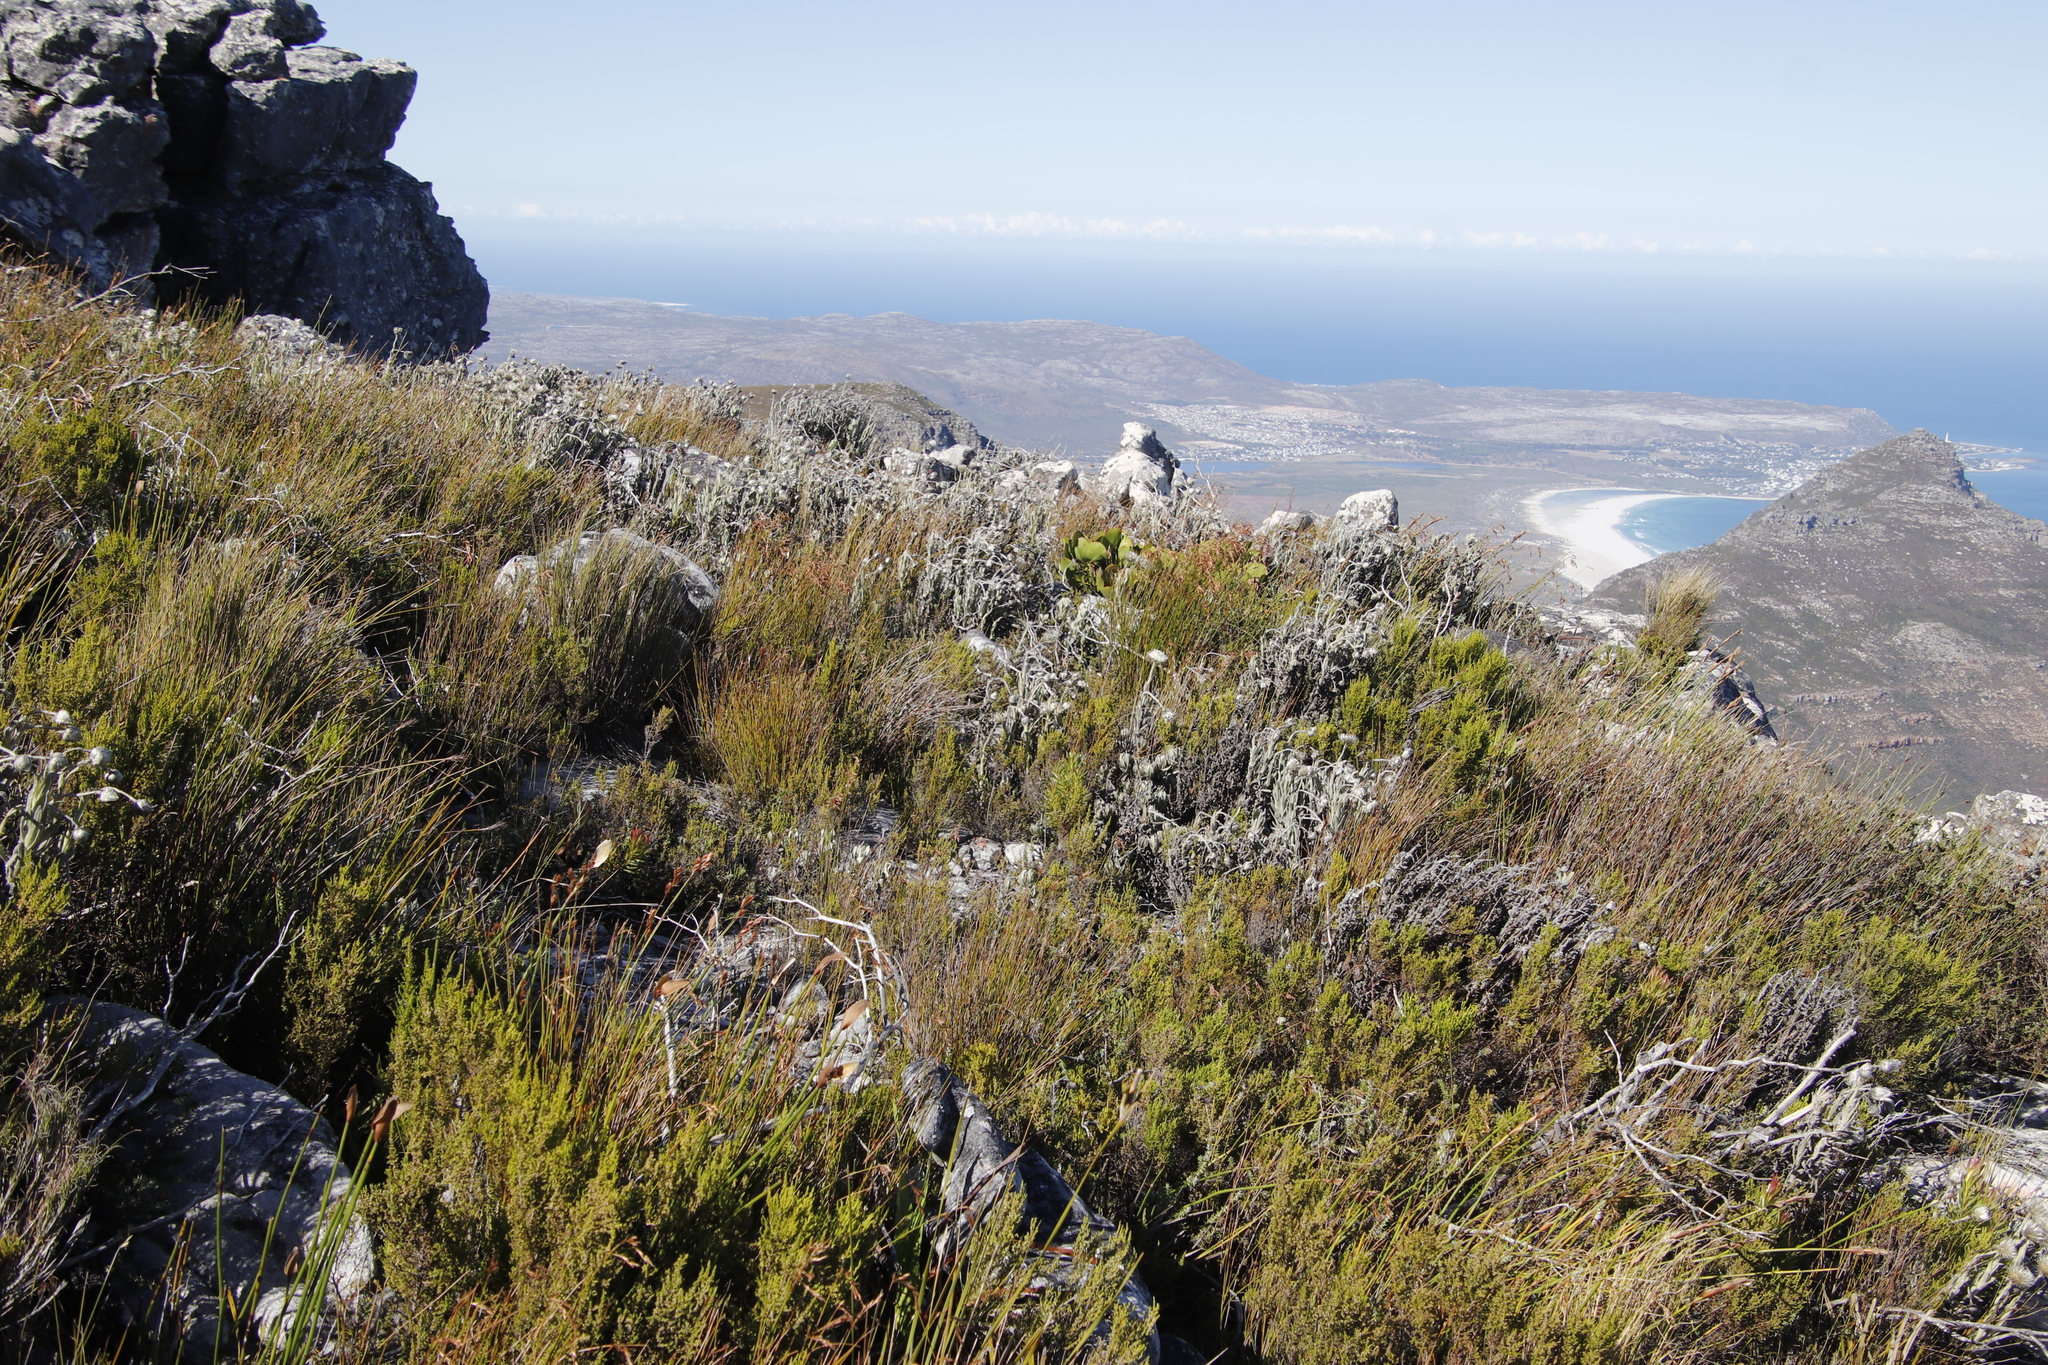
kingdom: Plantae
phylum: Tracheophyta
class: Magnoliopsida
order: Asterales
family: Asteraceae
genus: Syncarpha
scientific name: Syncarpha vestita
